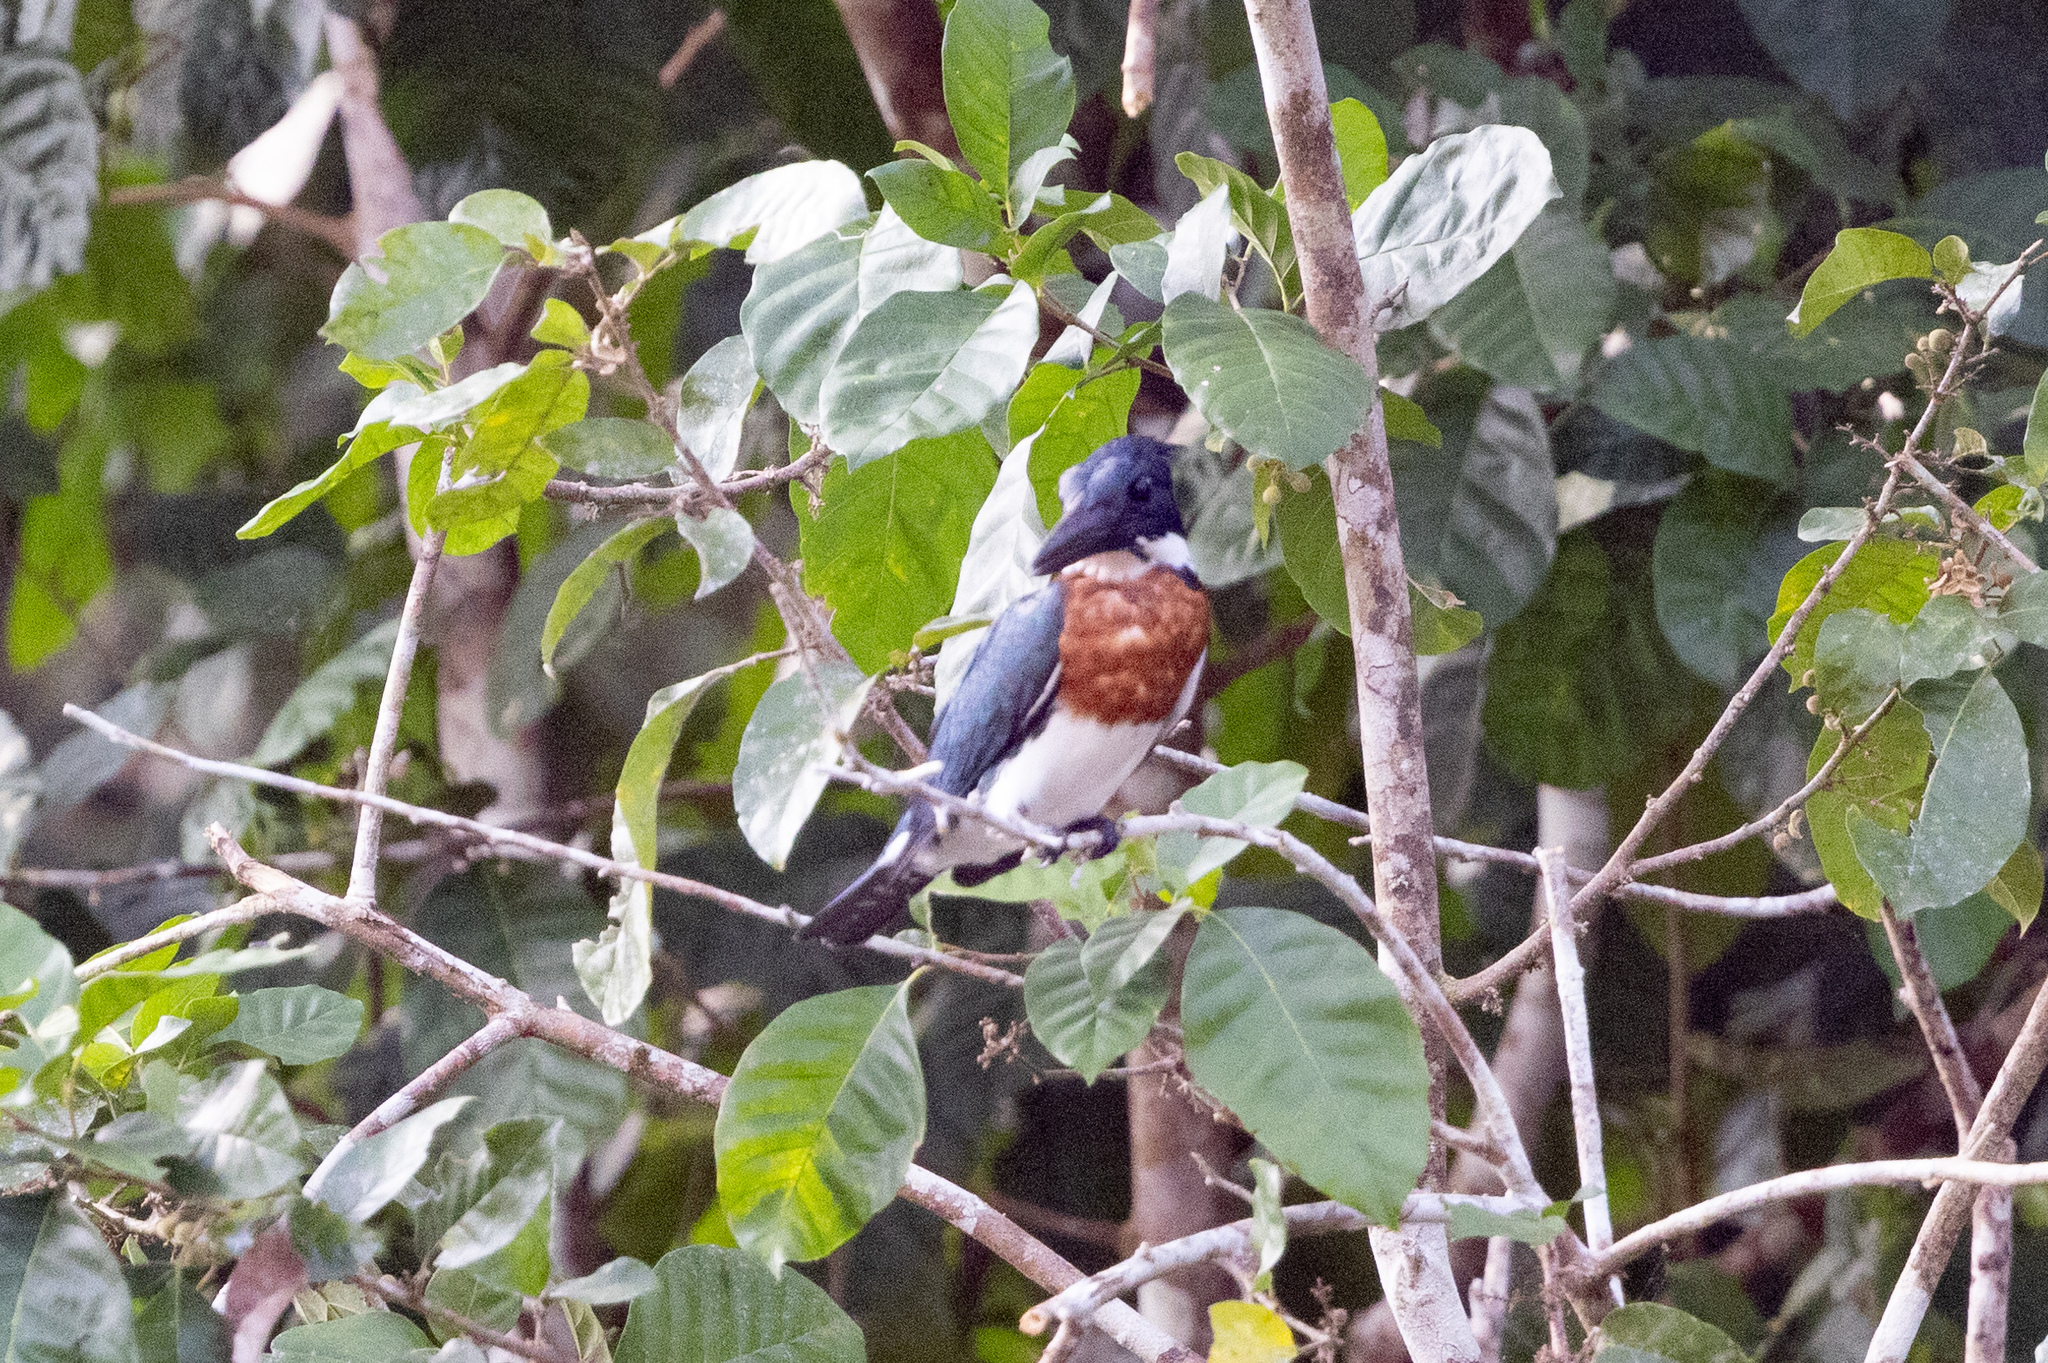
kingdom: Animalia
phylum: Chordata
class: Aves
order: Coraciiformes
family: Alcedinidae
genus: Chloroceryle
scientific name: Chloroceryle amazona
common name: Amazon kingfisher
